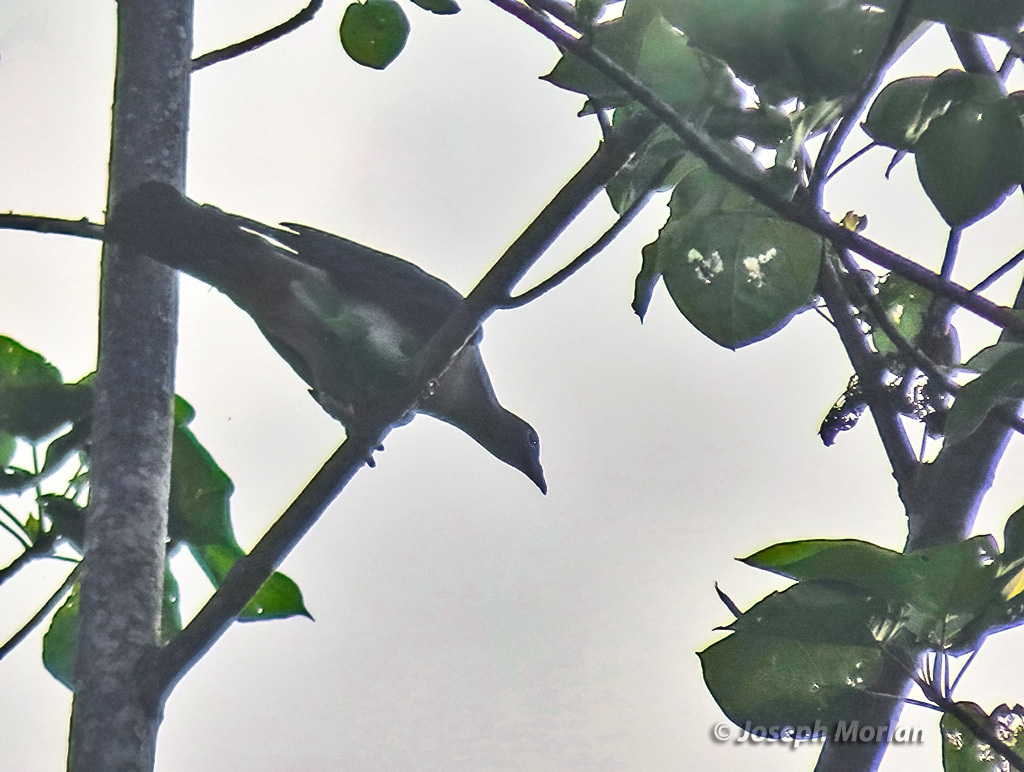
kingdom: Animalia
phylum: Chordata
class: Aves
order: Columbiformes
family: Columbidae
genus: Ducula
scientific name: Ducula perspicillata
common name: Spectacled imperial pigeon
